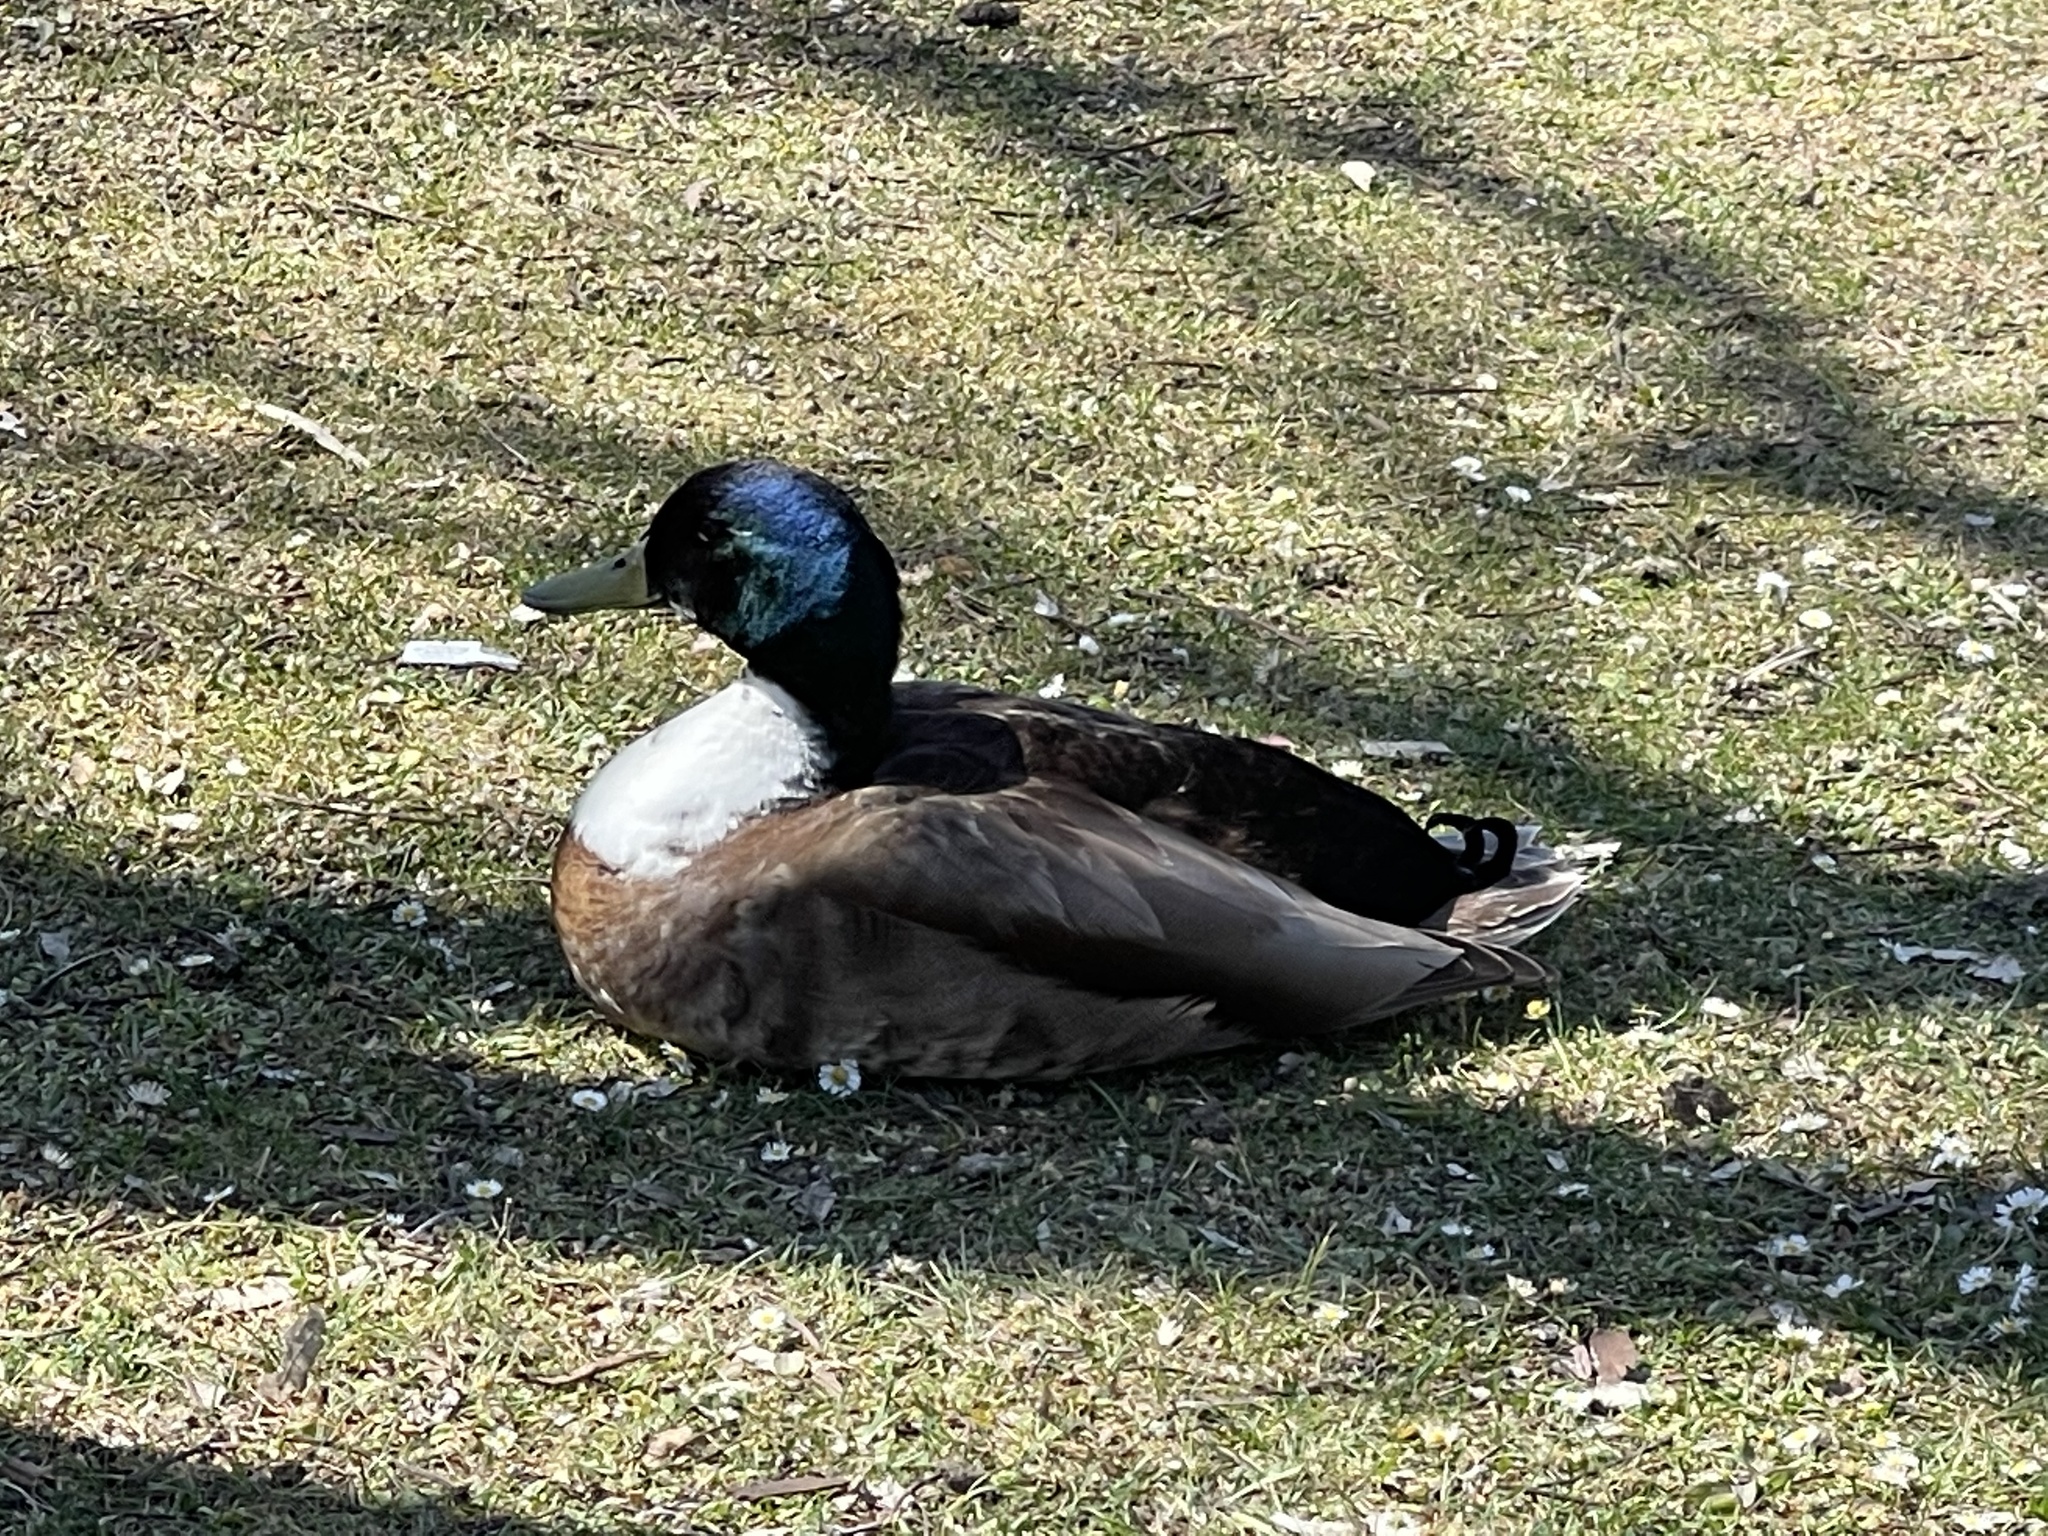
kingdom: Animalia
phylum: Chordata
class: Aves
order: Anseriformes
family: Anatidae
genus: Anas
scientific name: Anas platyrhynchos
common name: Mallard
